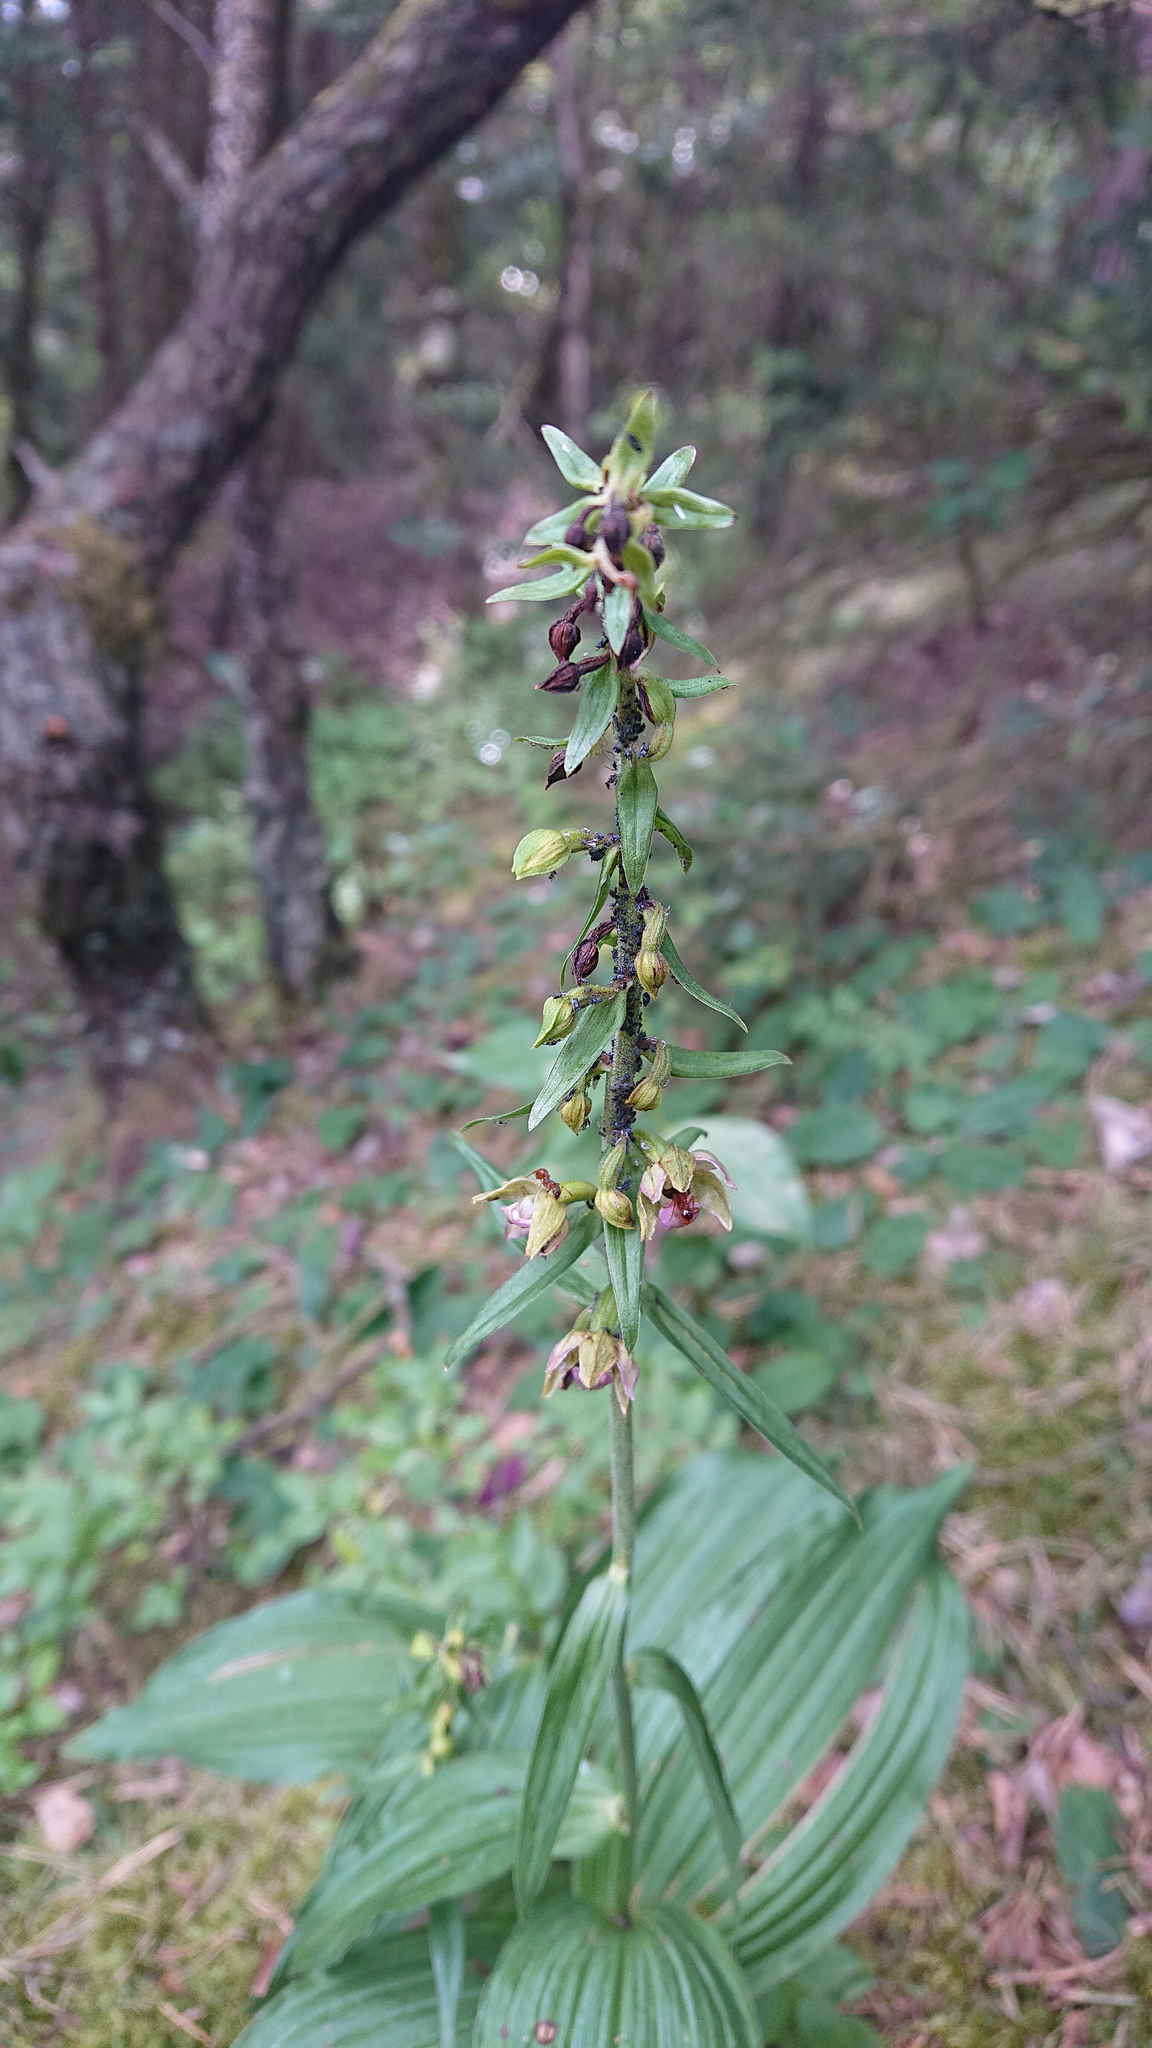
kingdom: Plantae
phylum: Tracheophyta
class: Liliopsida
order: Asparagales
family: Orchidaceae
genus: Epipactis
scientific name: Epipactis helleborine
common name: Broad-leaved helleborine
